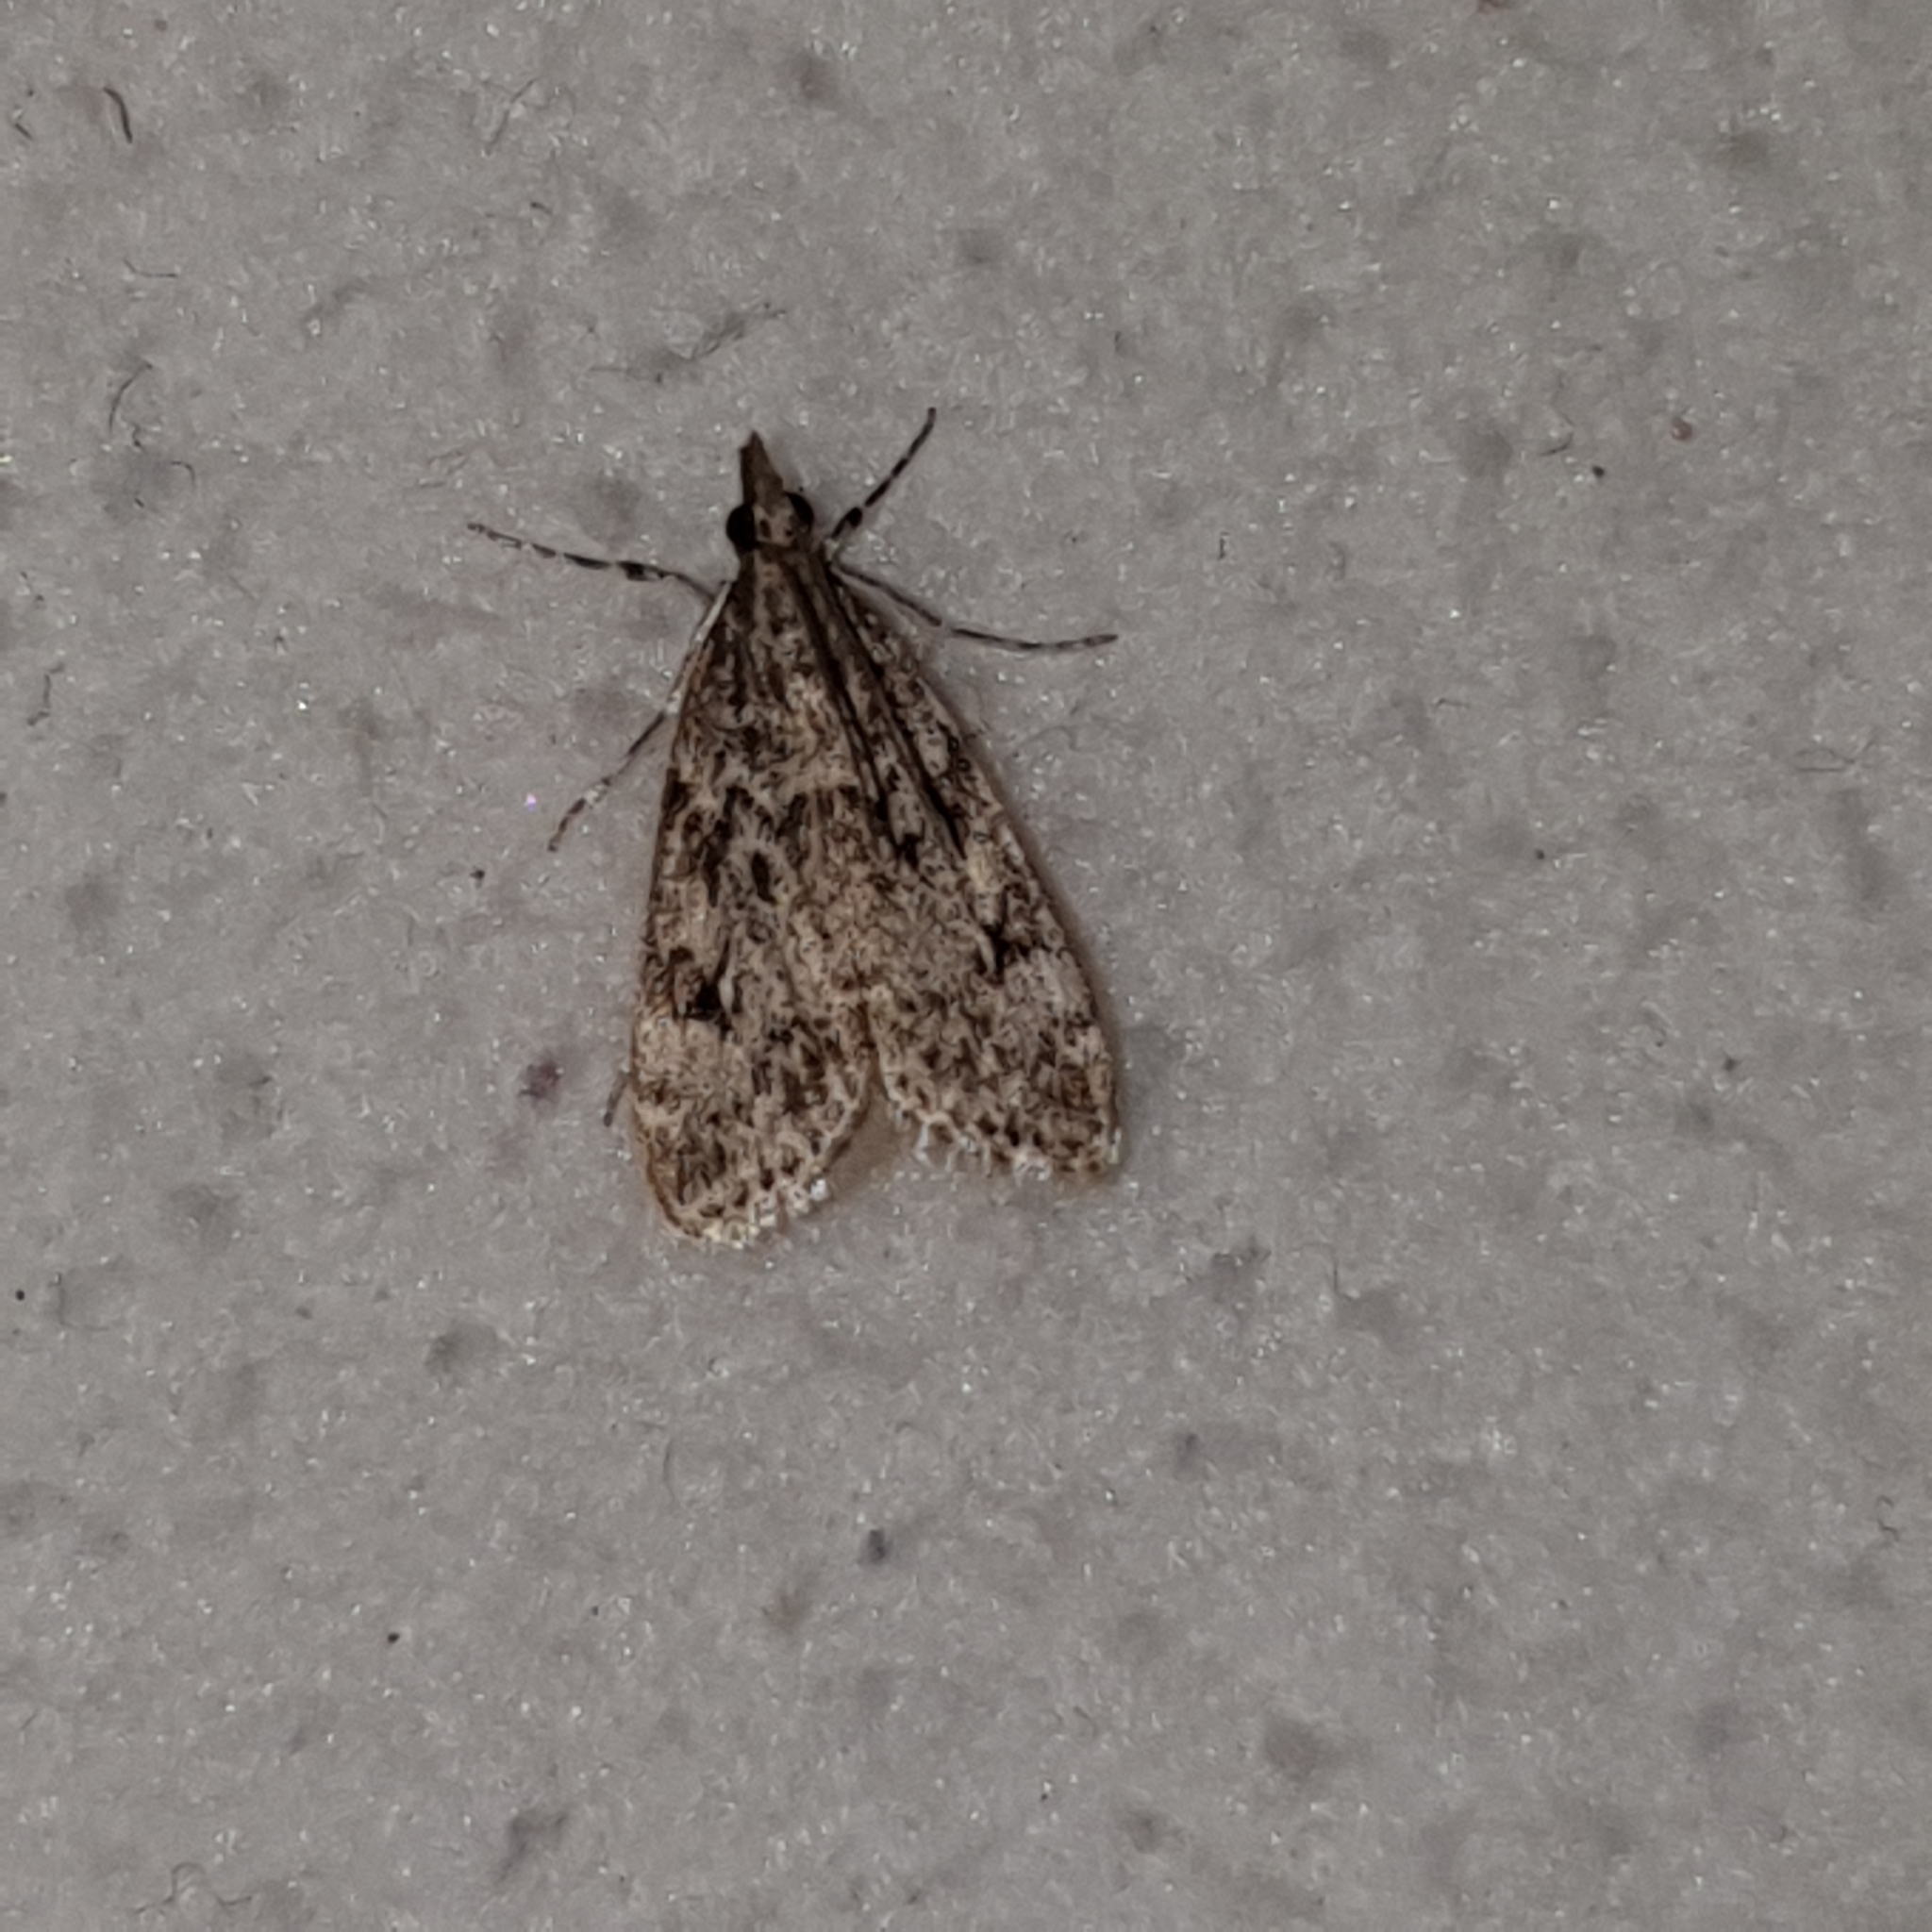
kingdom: Animalia
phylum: Arthropoda
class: Insecta
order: Lepidoptera
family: Crambidae
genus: Eudonia
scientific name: Eudonia truncicolella
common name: Ground-moss grey
